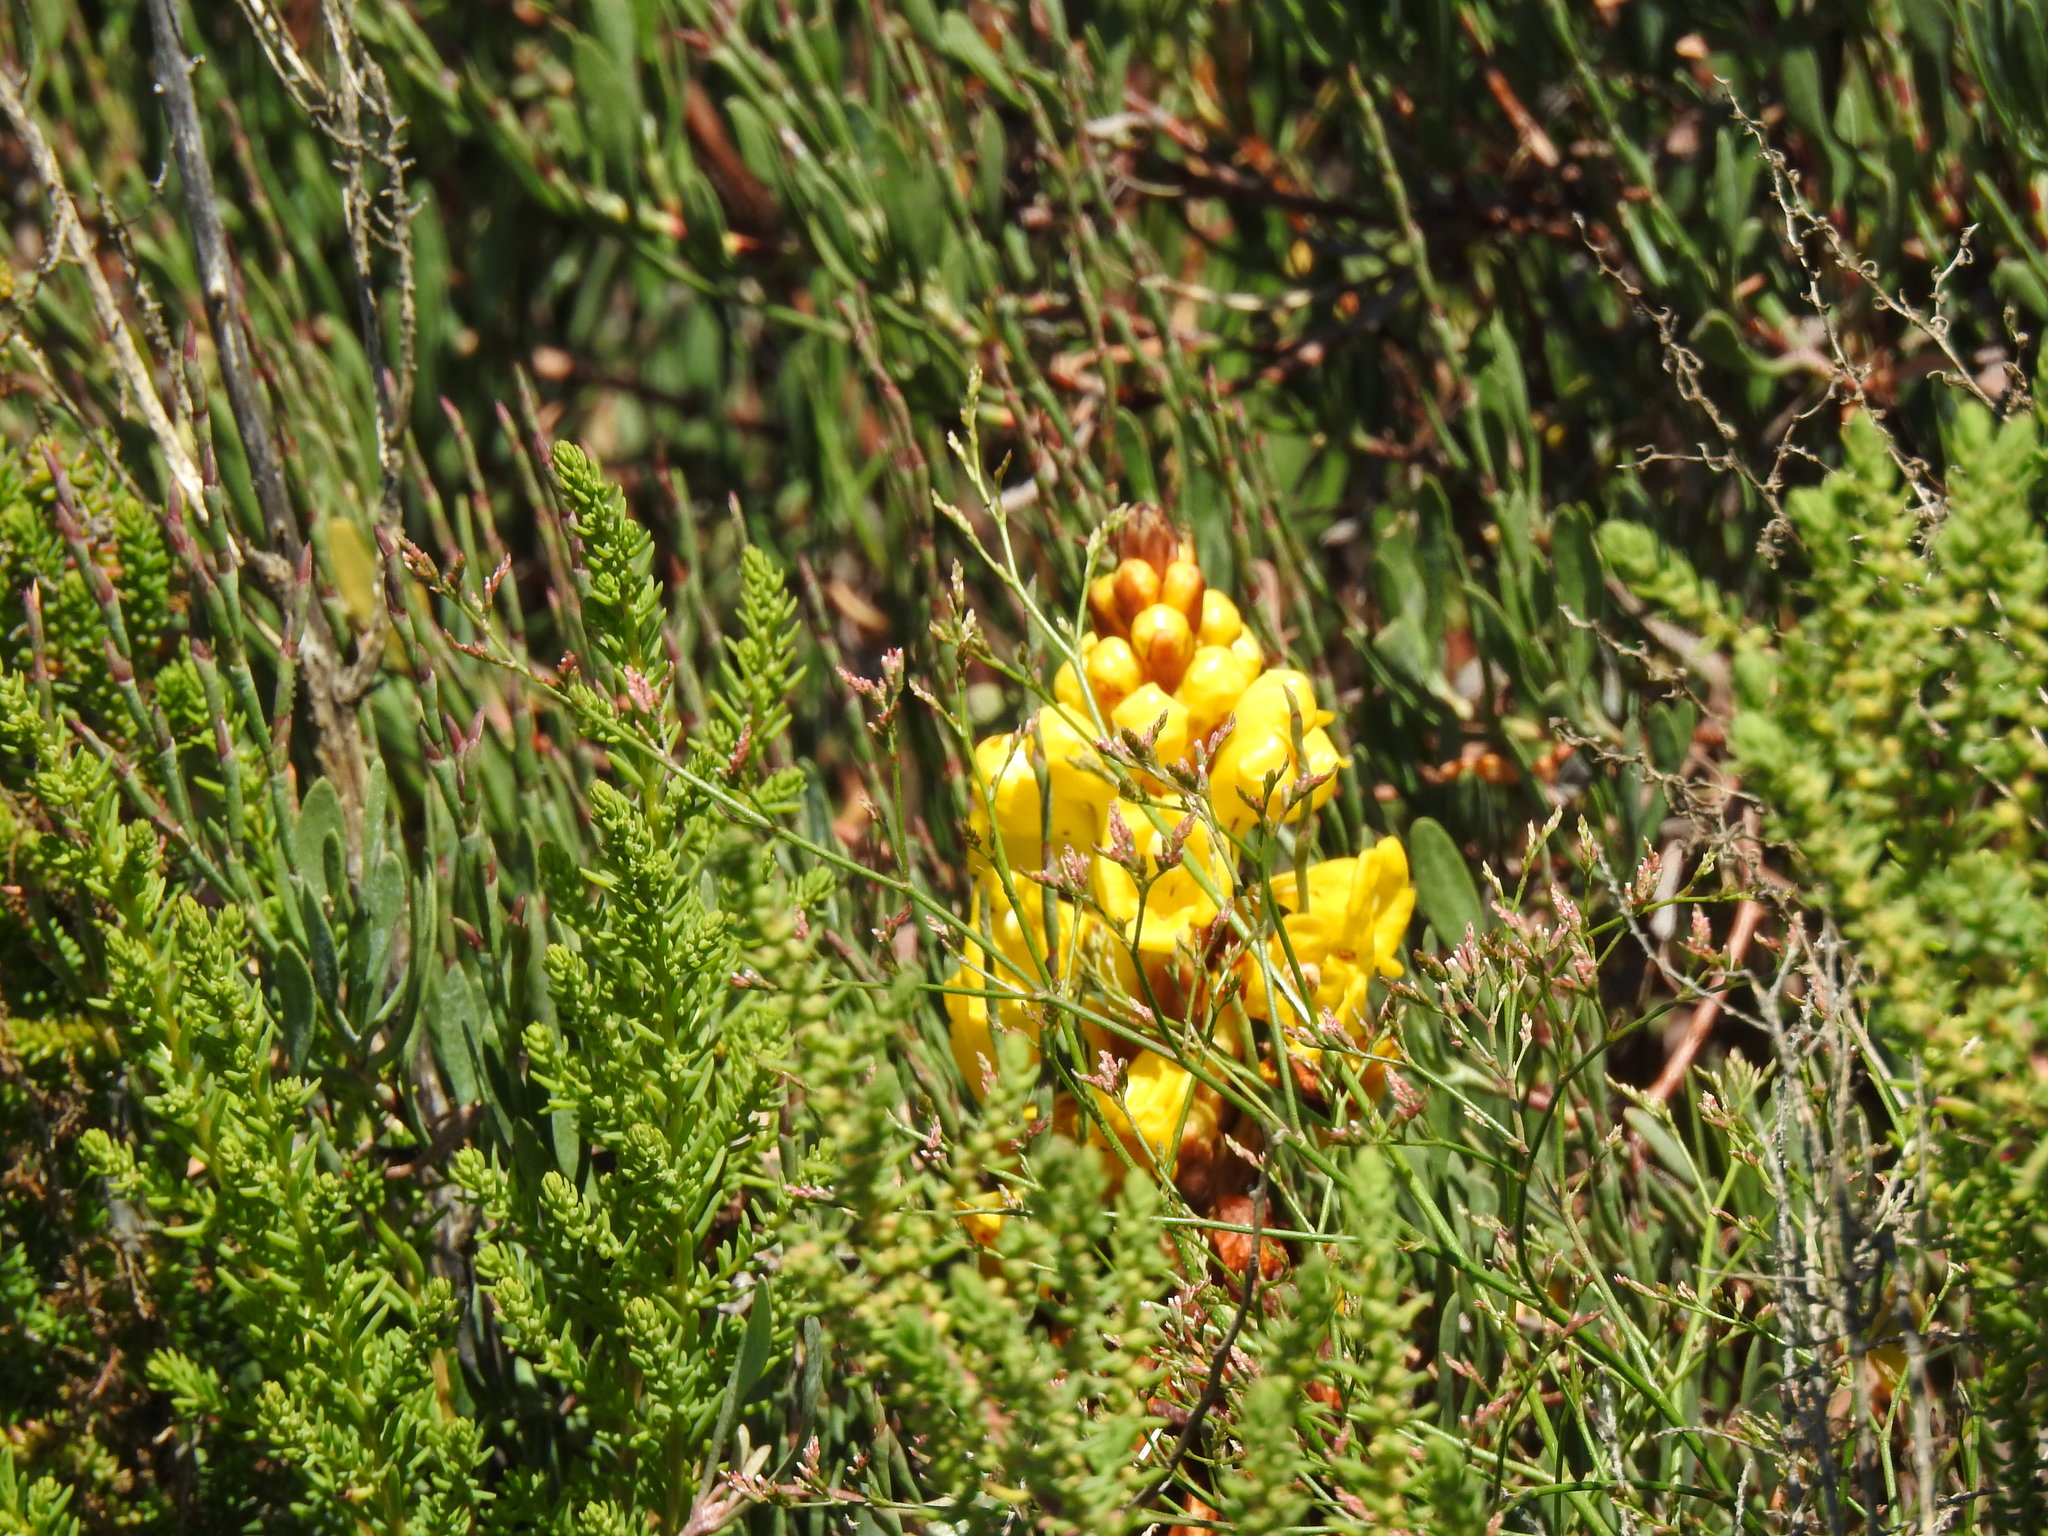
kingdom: Plantae
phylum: Tracheophyta
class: Magnoliopsida
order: Lamiales
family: Orobanchaceae
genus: Cistanche
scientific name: Cistanche phelypaea
